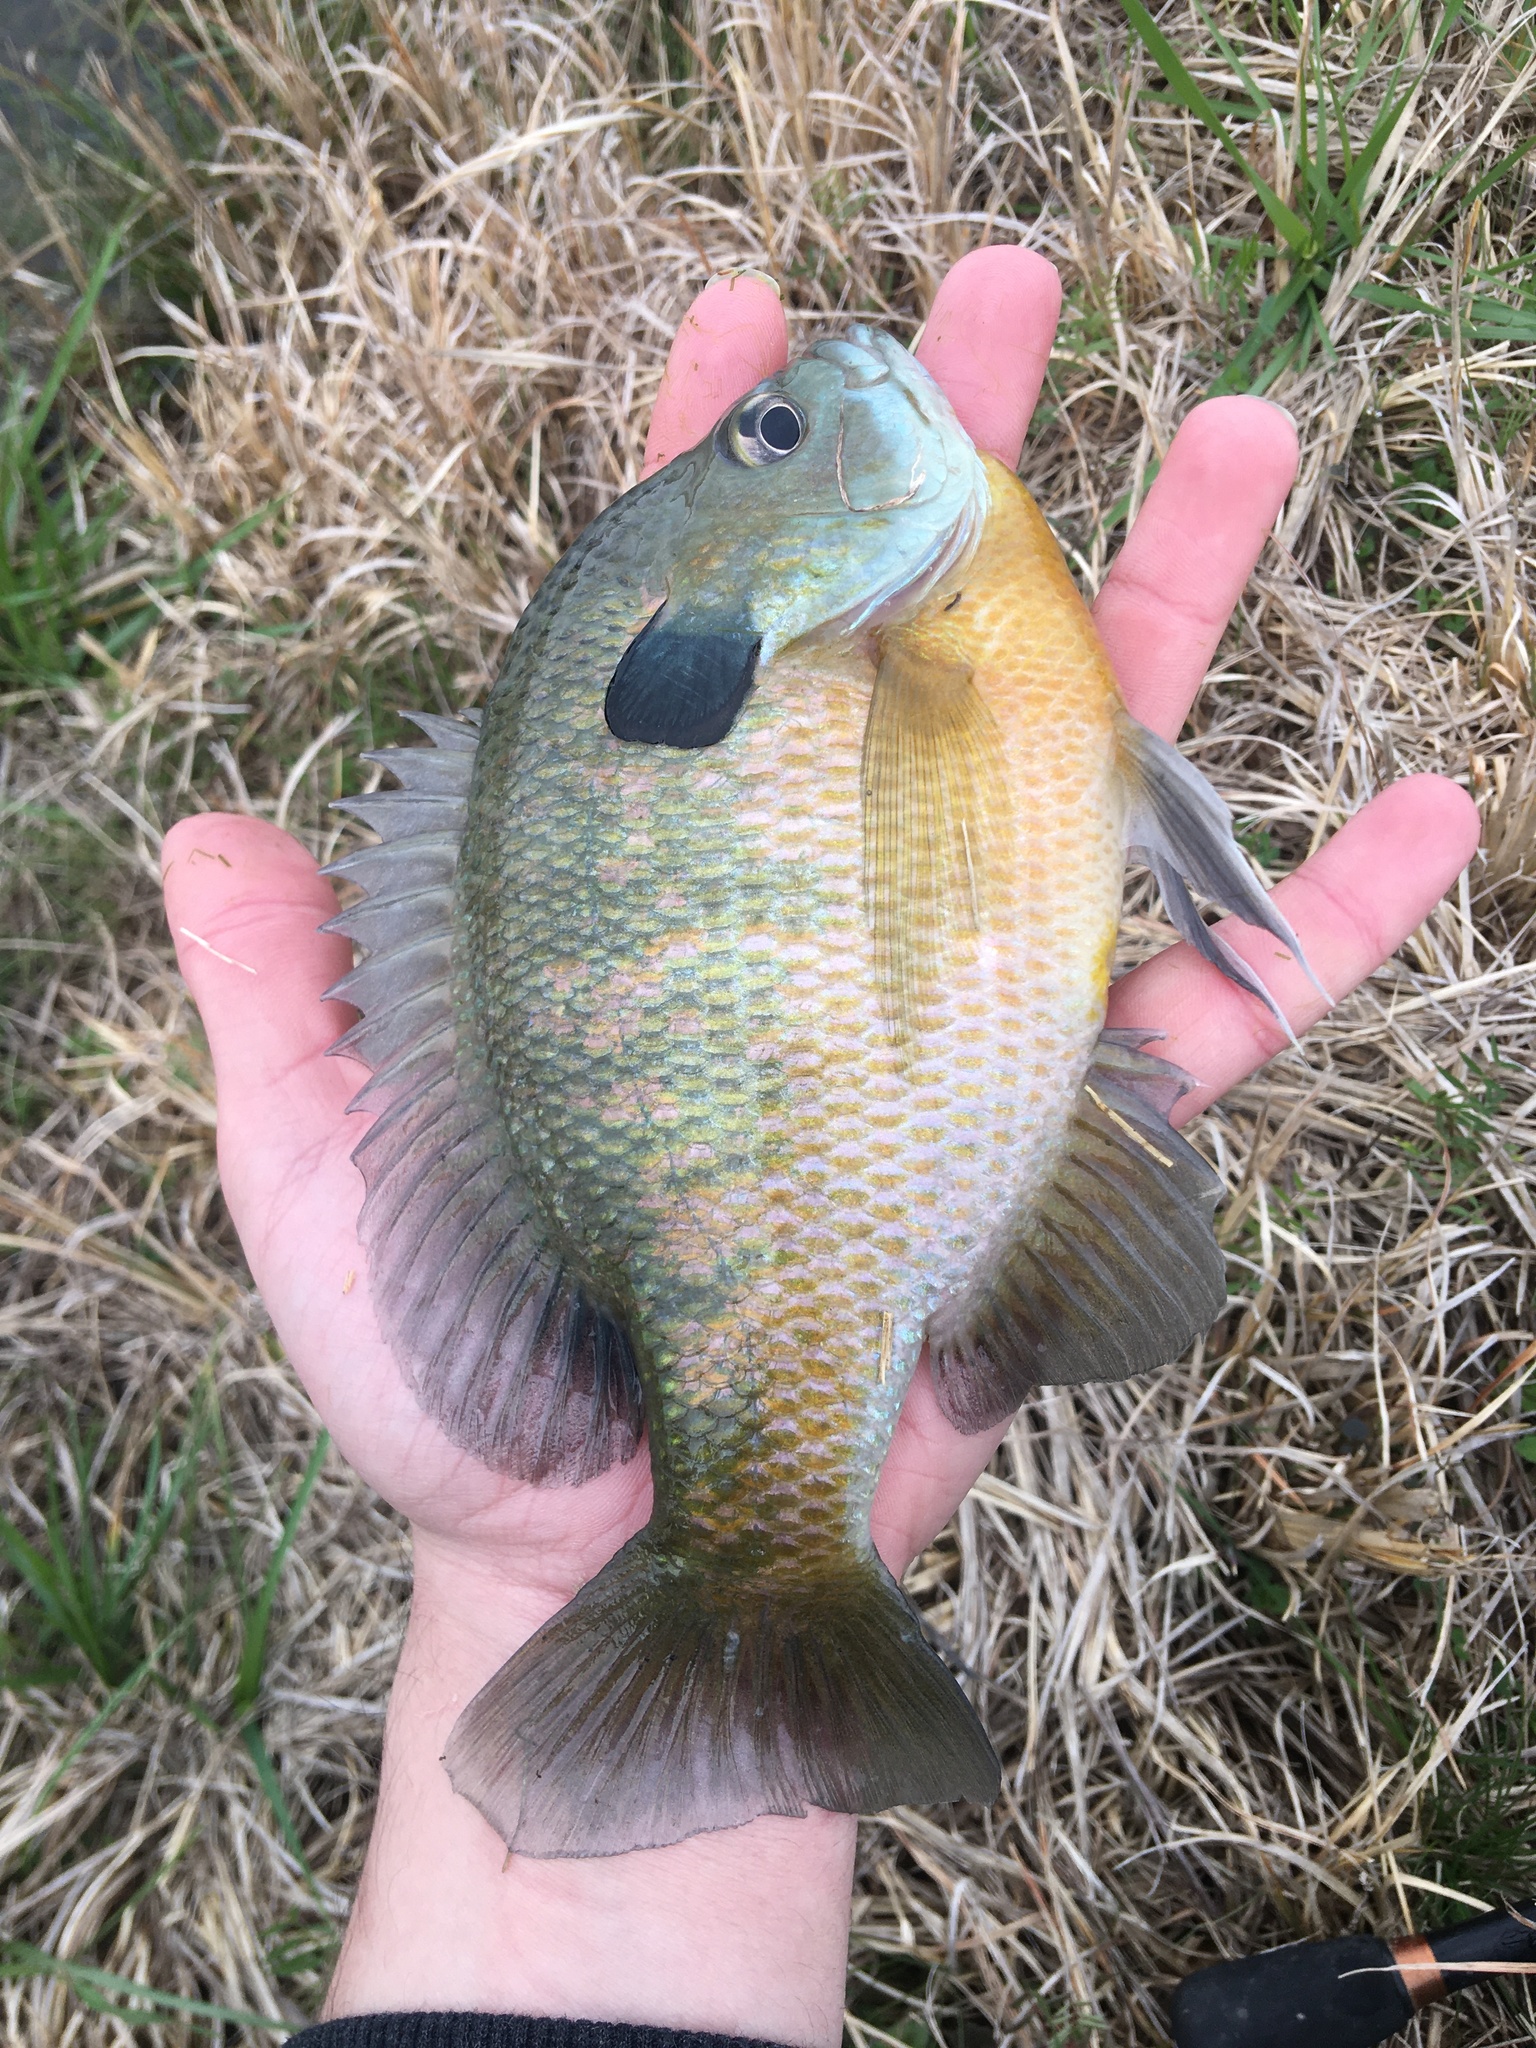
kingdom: Animalia
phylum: Chordata
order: Perciformes
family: Centrarchidae
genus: Lepomis
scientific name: Lepomis macrochirus
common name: Bluegill
